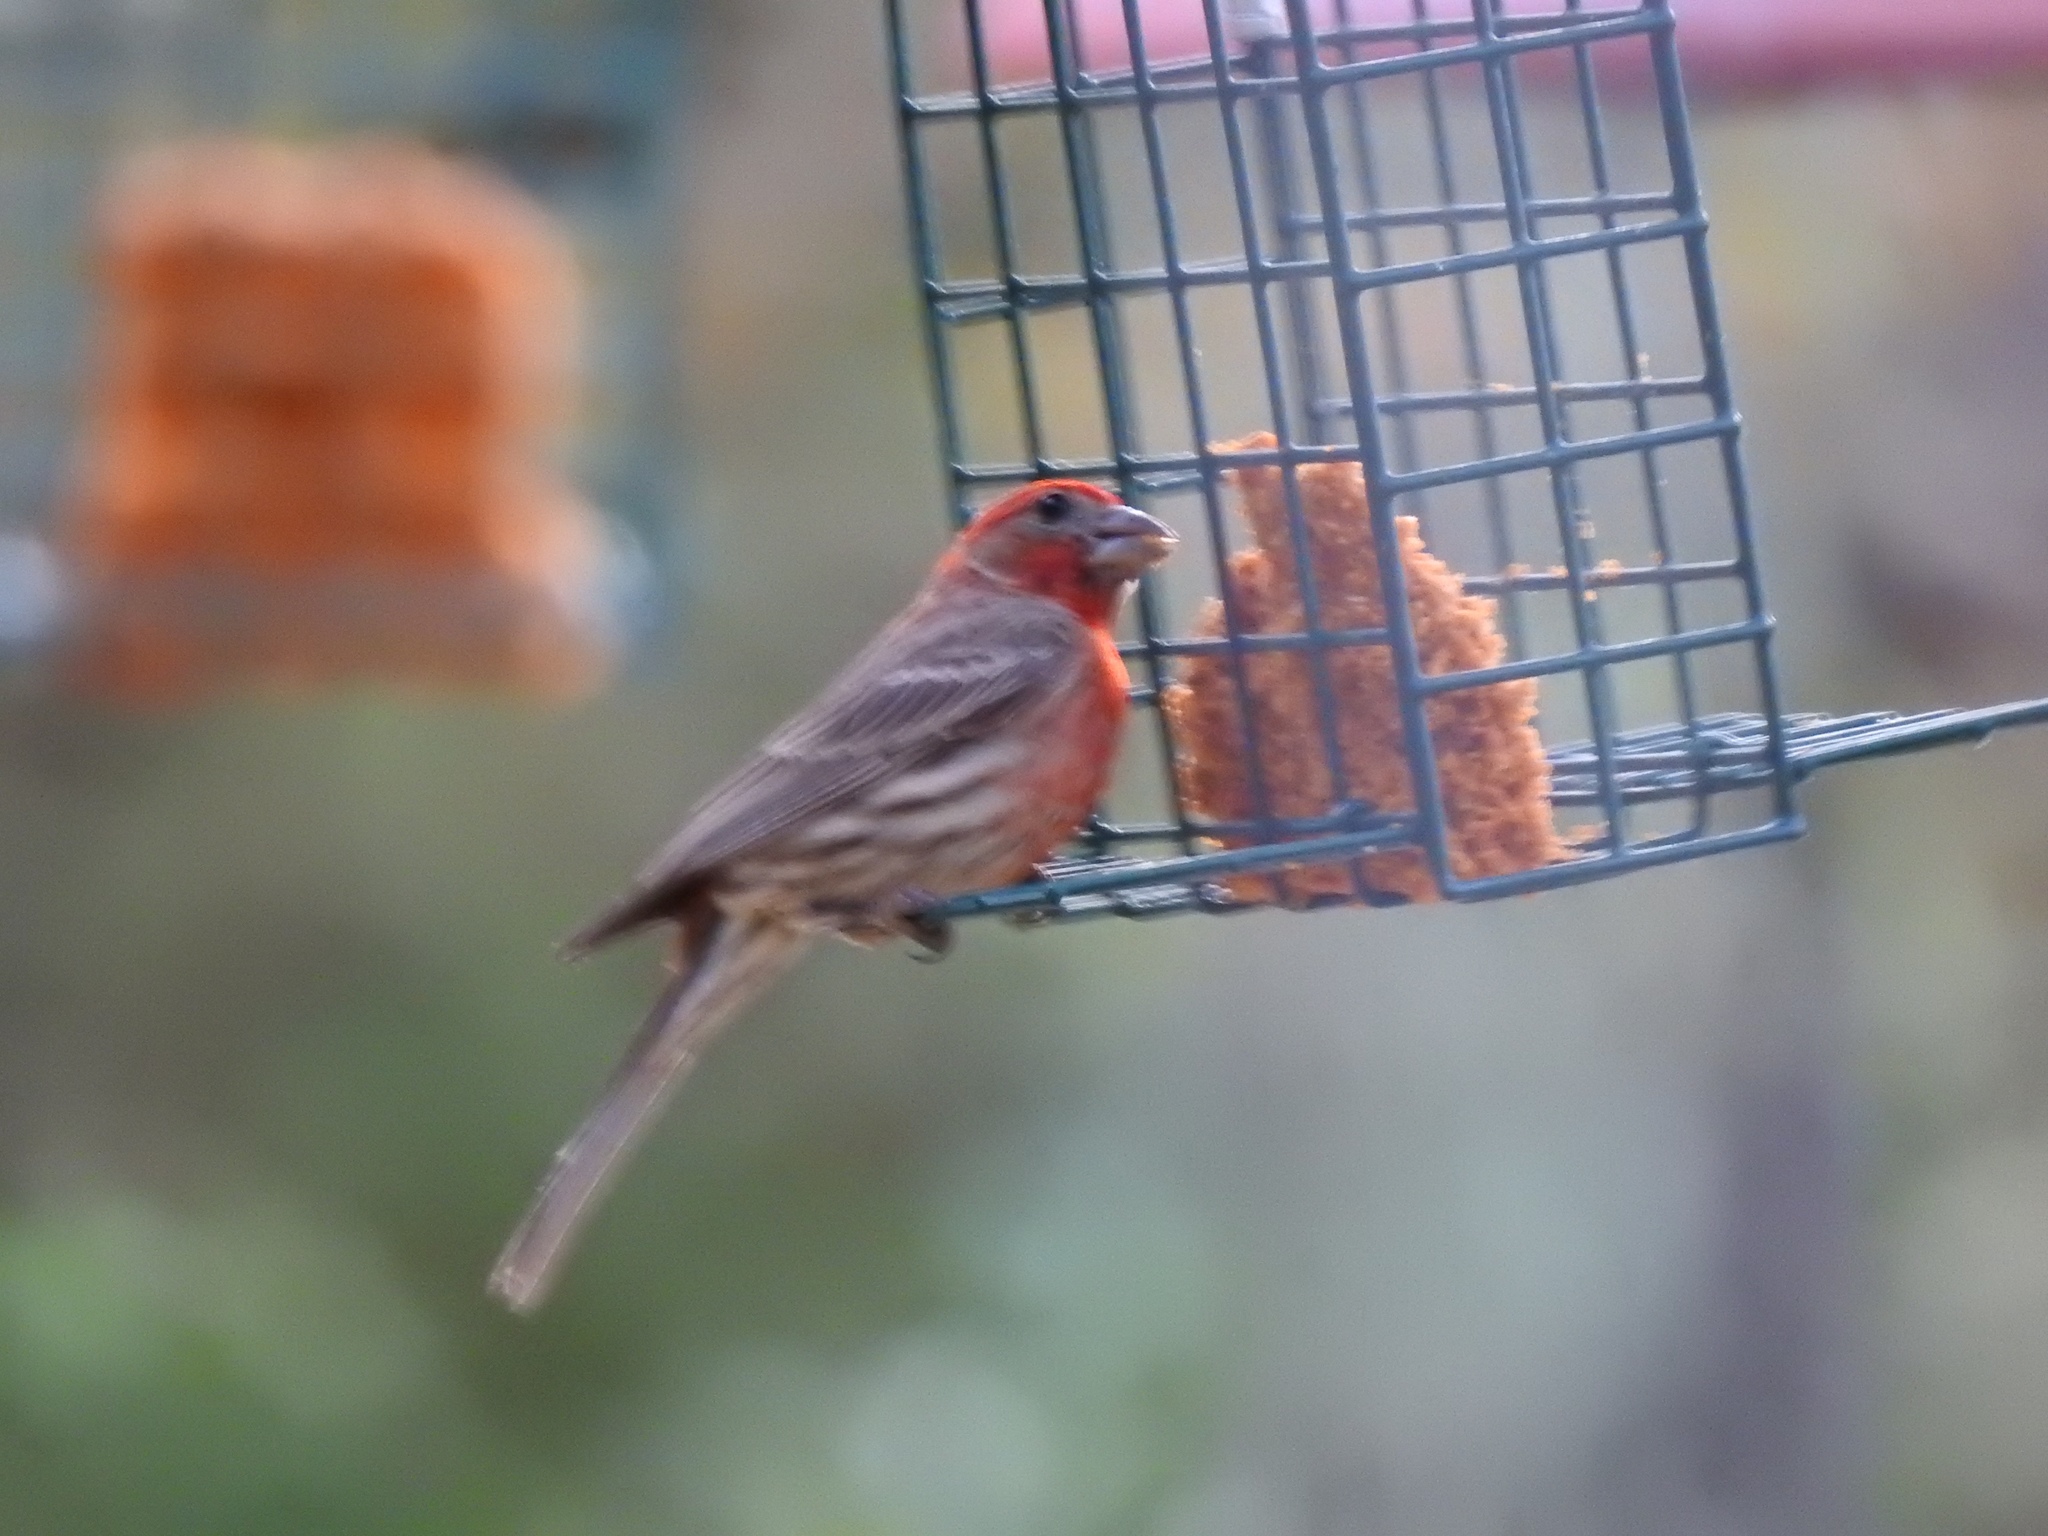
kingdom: Animalia
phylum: Chordata
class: Aves
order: Passeriformes
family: Fringillidae
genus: Haemorhous
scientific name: Haemorhous mexicanus
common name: House finch
